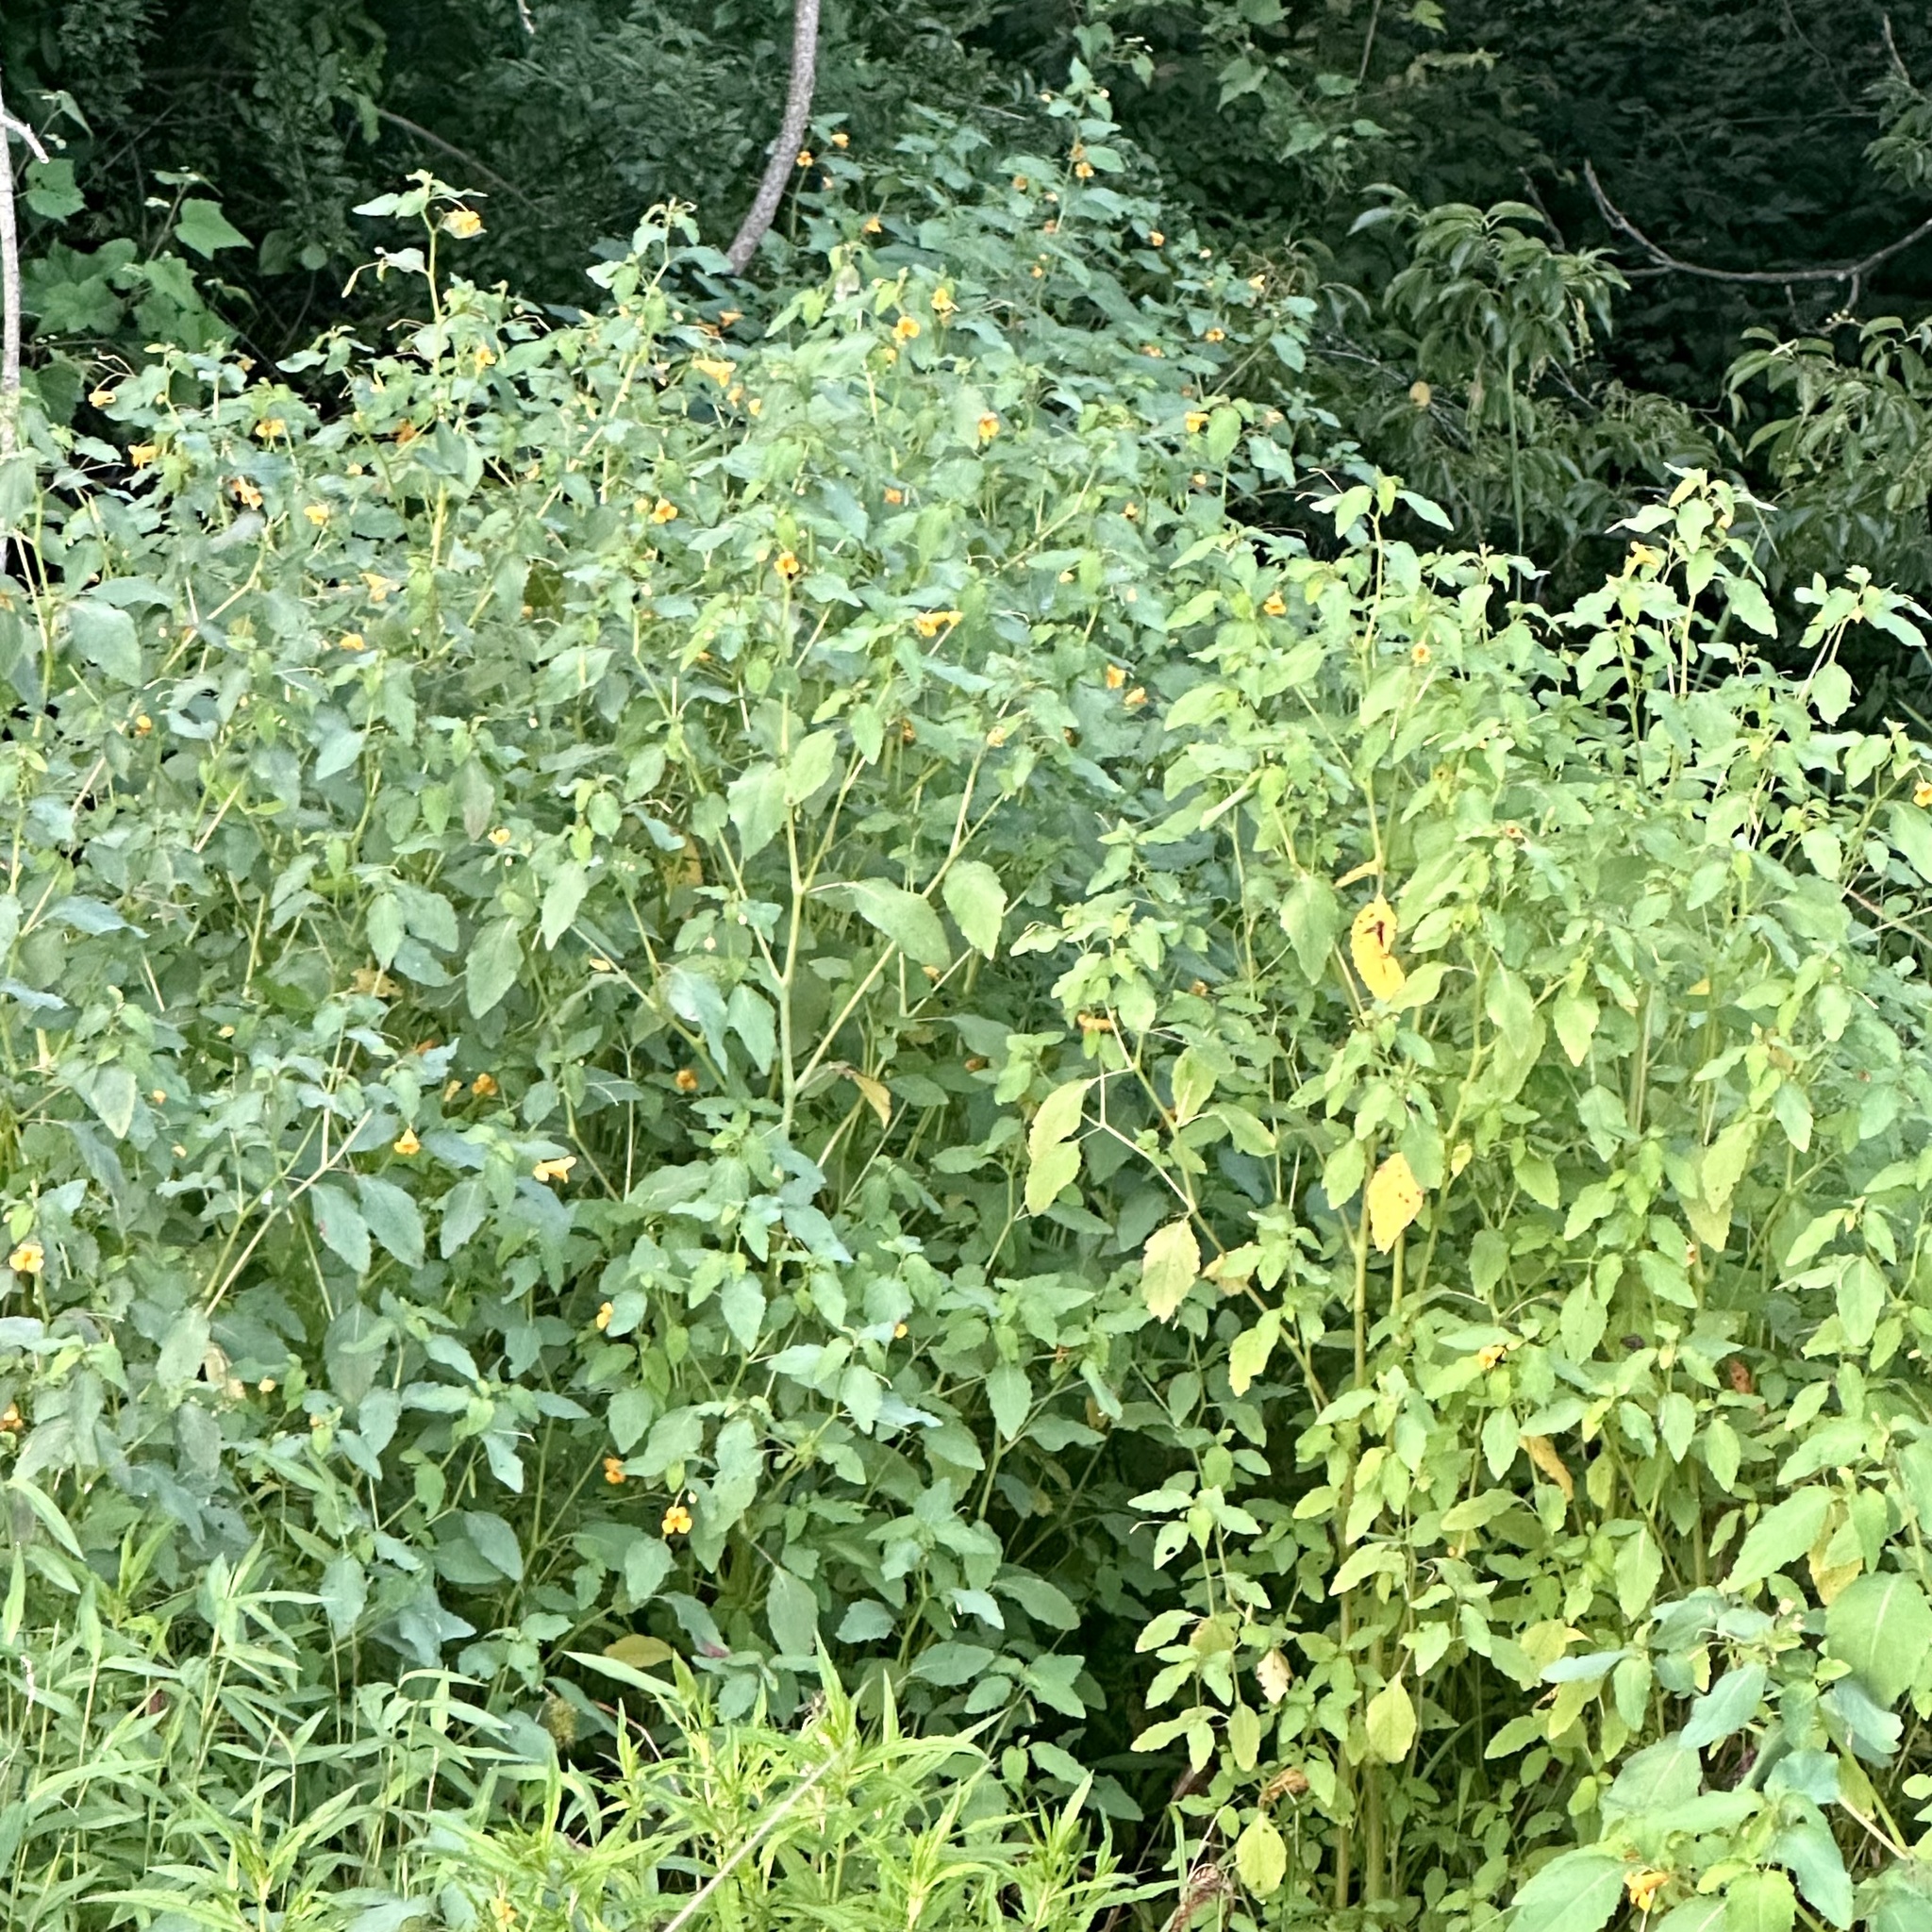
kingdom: Plantae
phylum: Tracheophyta
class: Magnoliopsida
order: Ericales
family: Balsaminaceae
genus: Impatiens
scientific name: Impatiens capensis
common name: Orange balsam
